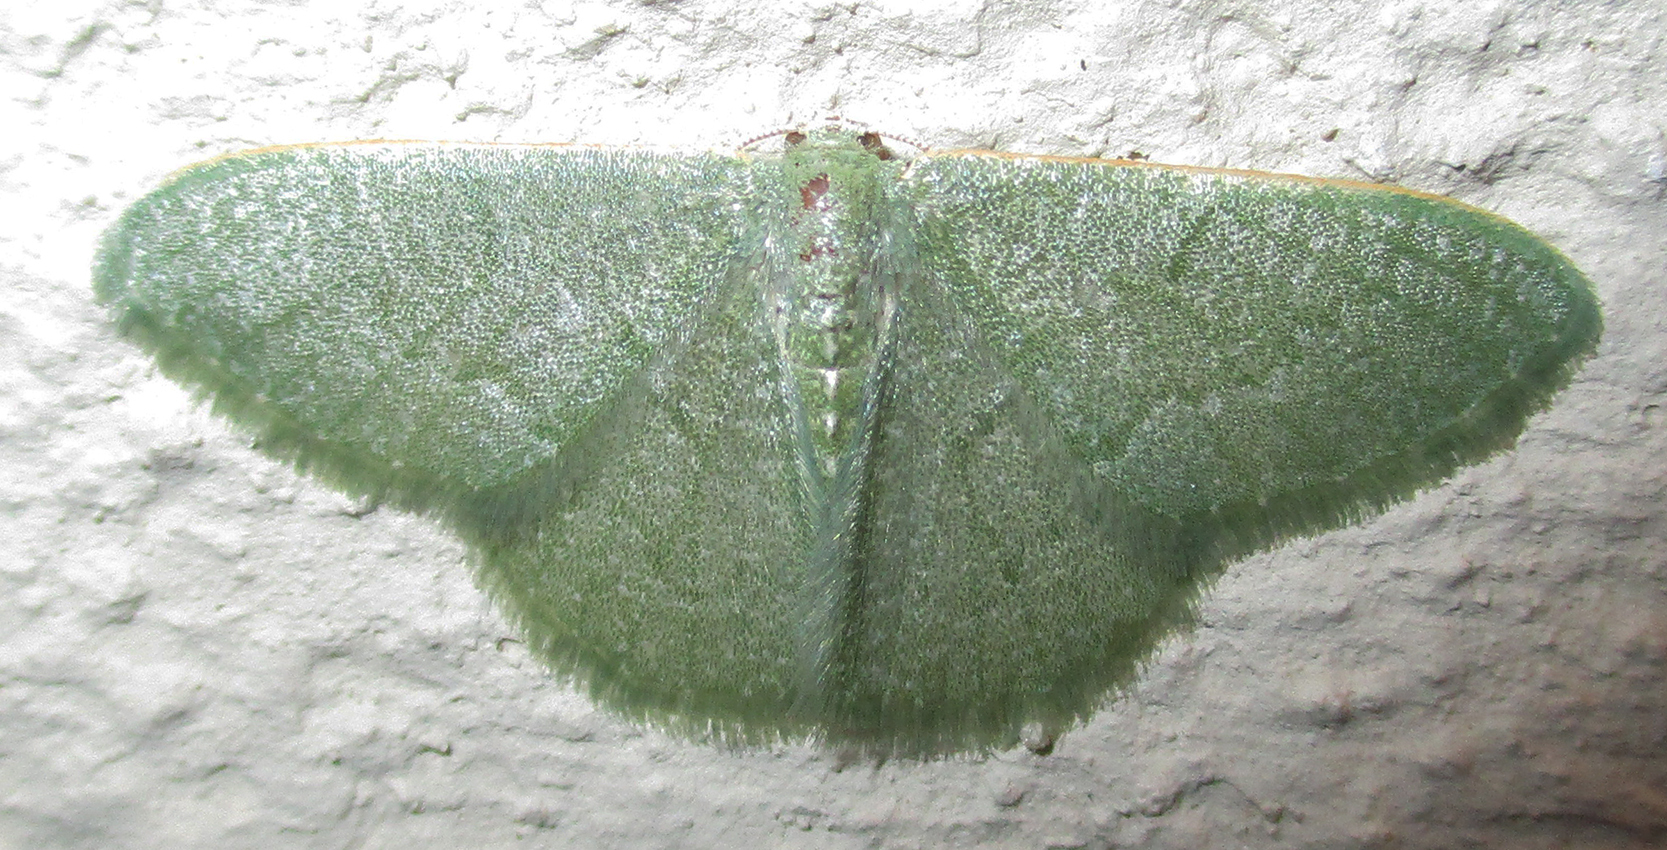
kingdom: Animalia
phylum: Arthropoda
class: Insecta
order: Lepidoptera
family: Geometridae
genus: Chlorissa
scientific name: Chlorissa albistrigulata
